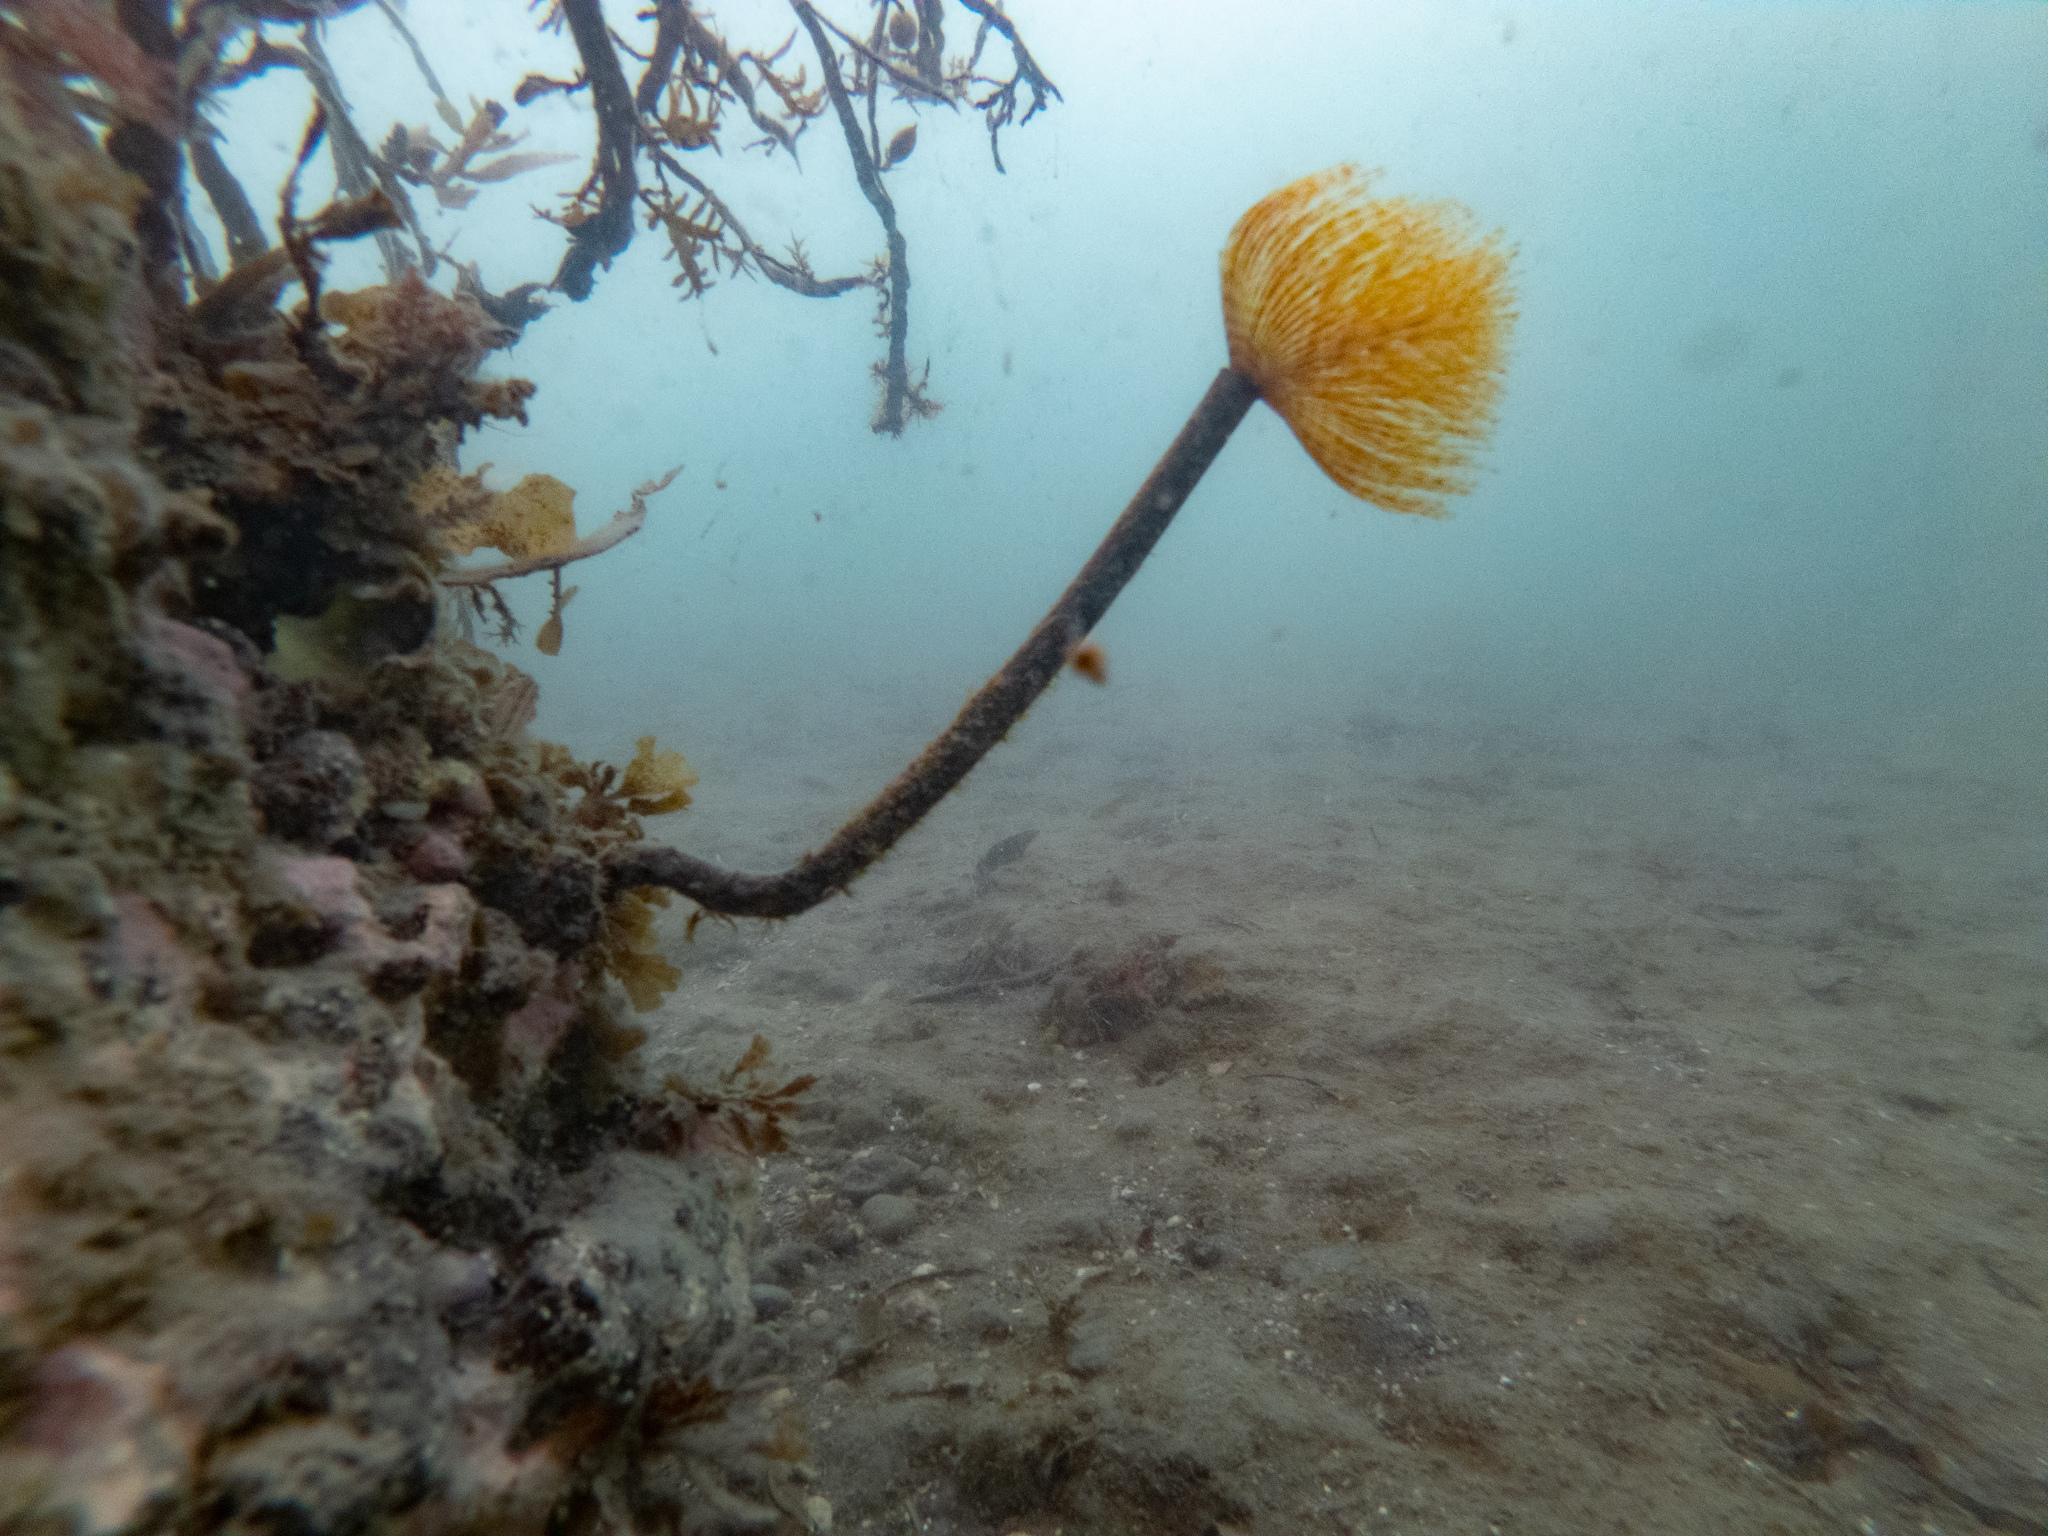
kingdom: Animalia
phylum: Annelida
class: Polychaeta
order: Sabellida
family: Sabellidae
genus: Sabella
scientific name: Sabella spallanzanii
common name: Feather duster worm
